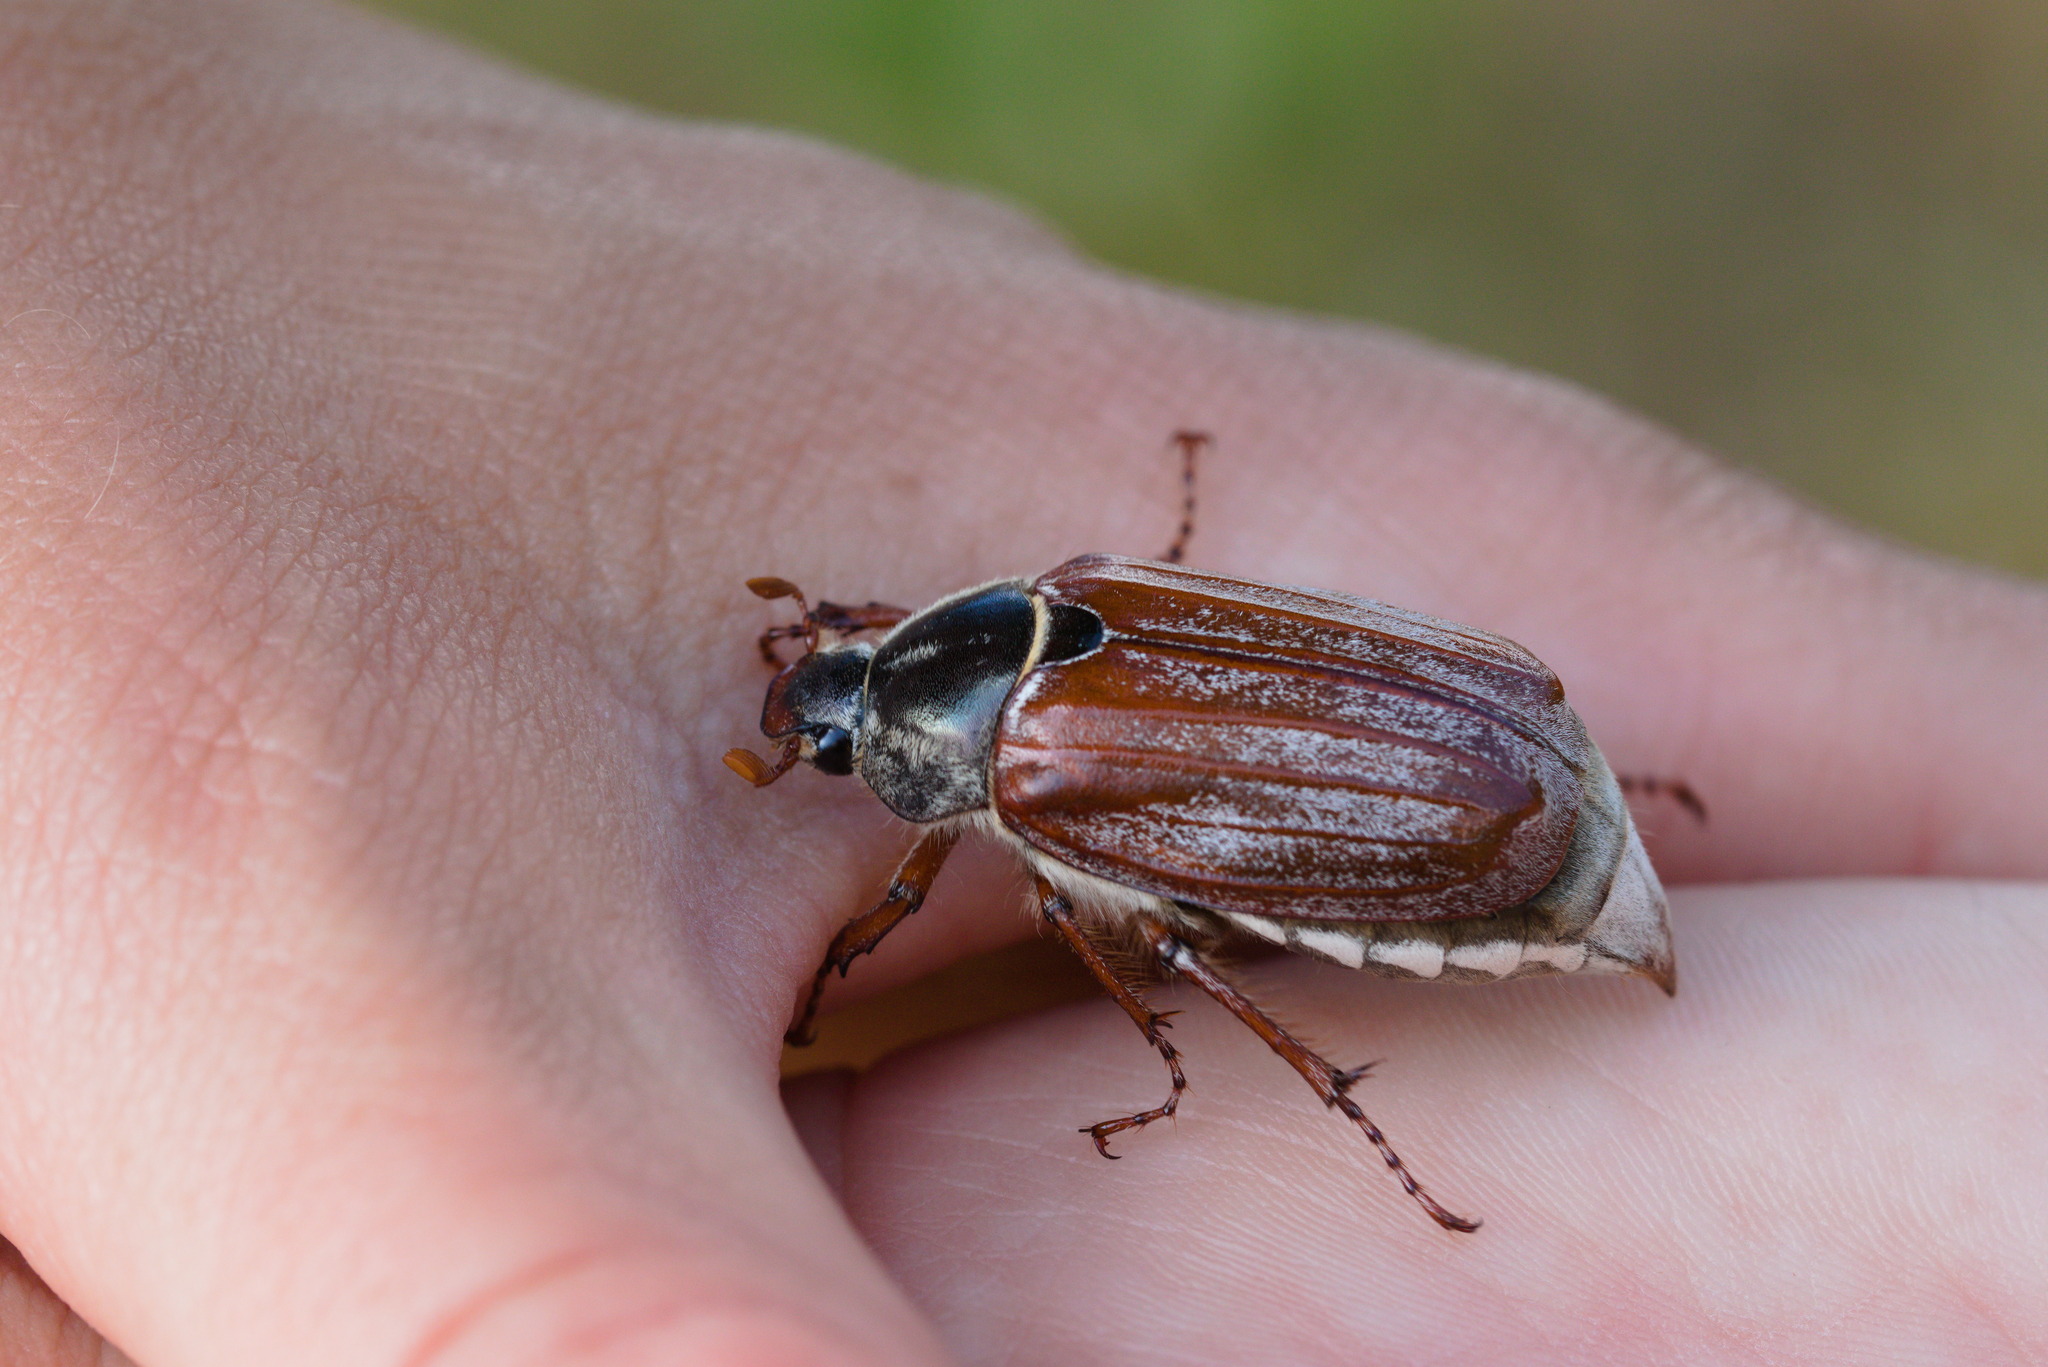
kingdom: Animalia
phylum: Arthropoda
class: Insecta
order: Coleoptera
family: Scarabaeidae
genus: Melolontha
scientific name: Melolontha melolontha
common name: Cockchafer maybeetle
